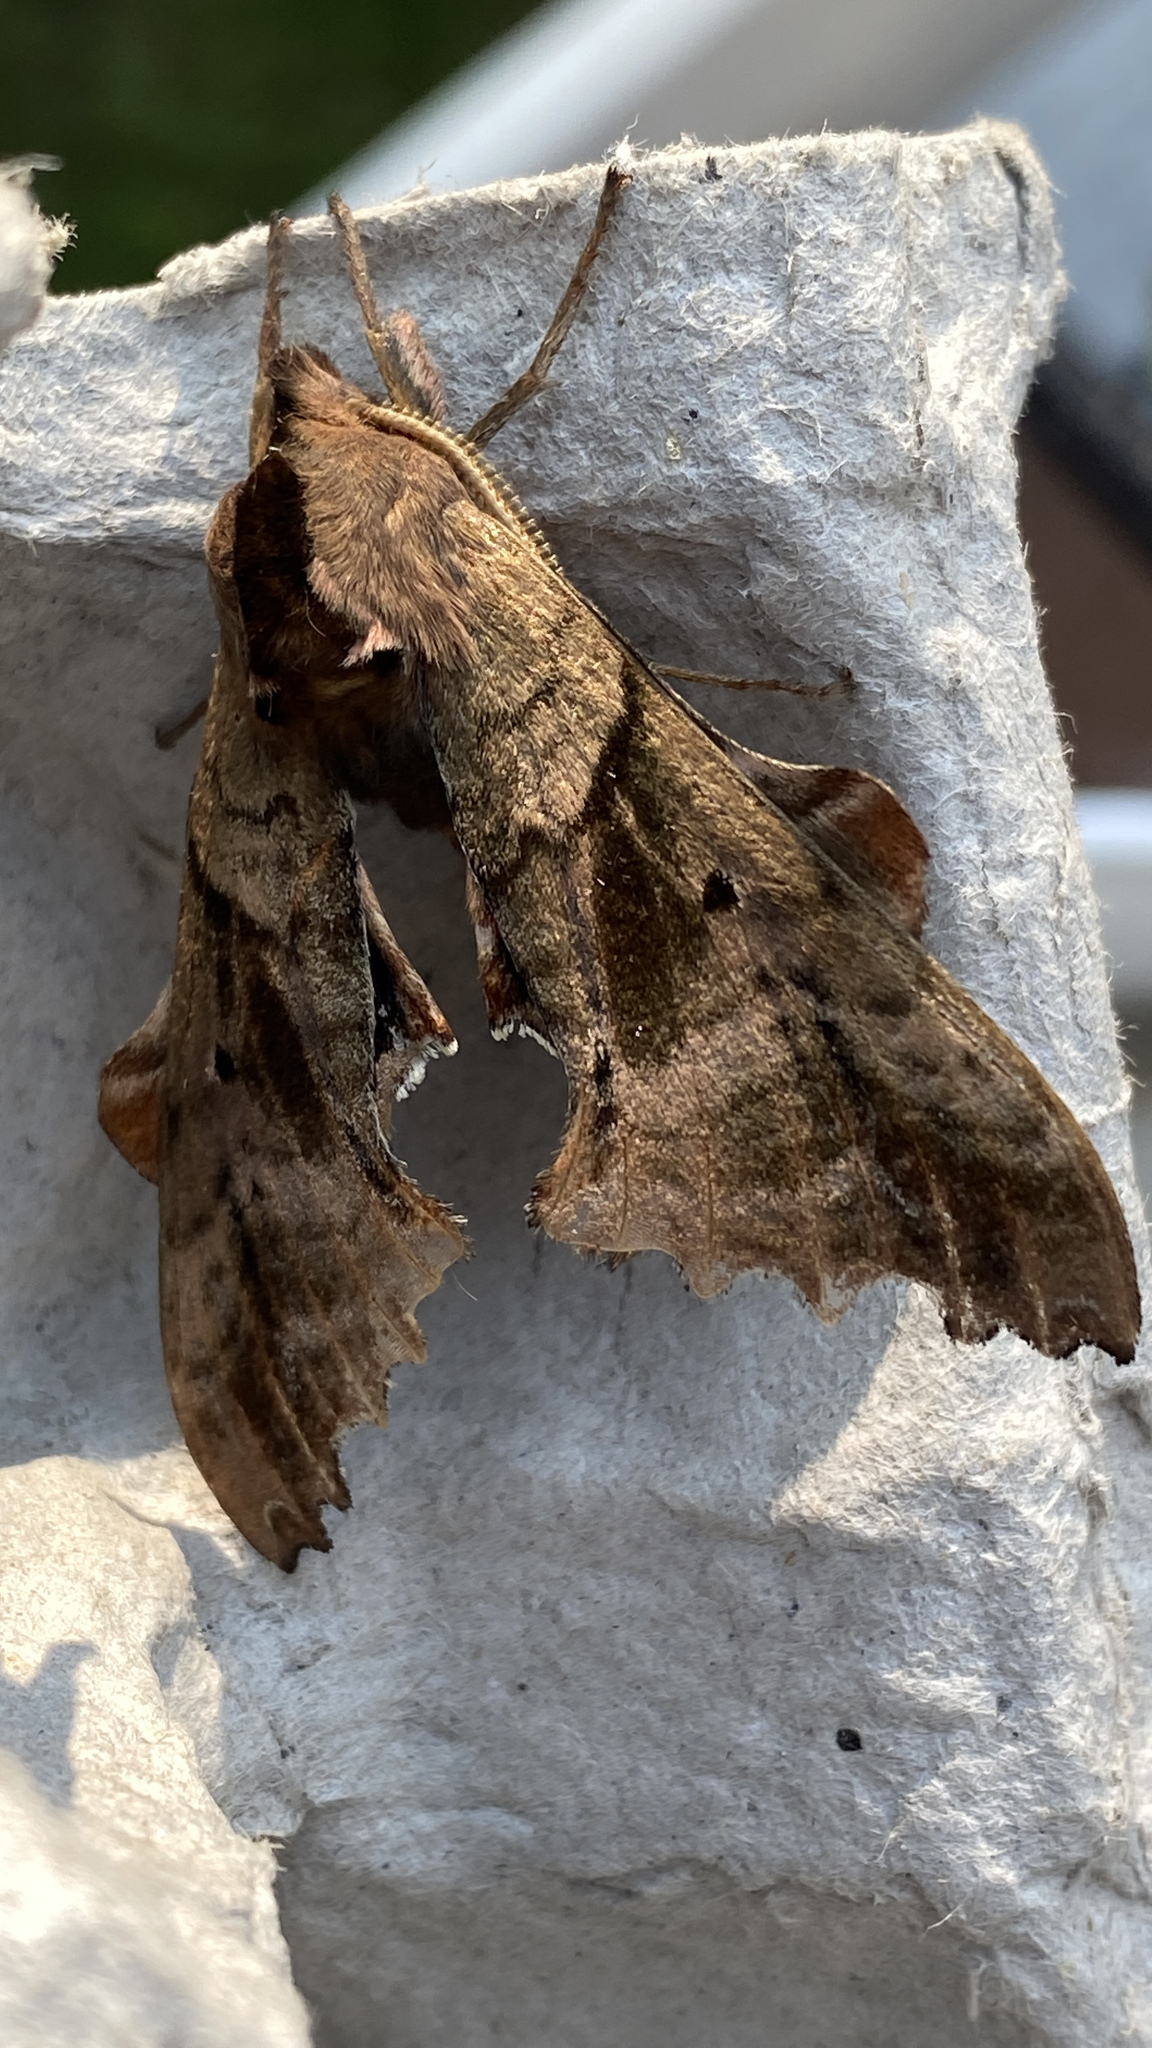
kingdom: Animalia
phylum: Arthropoda
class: Insecta
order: Lepidoptera
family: Sphingidae
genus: Paonias
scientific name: Paonias excaecata
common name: Blind-eyed sphinx
